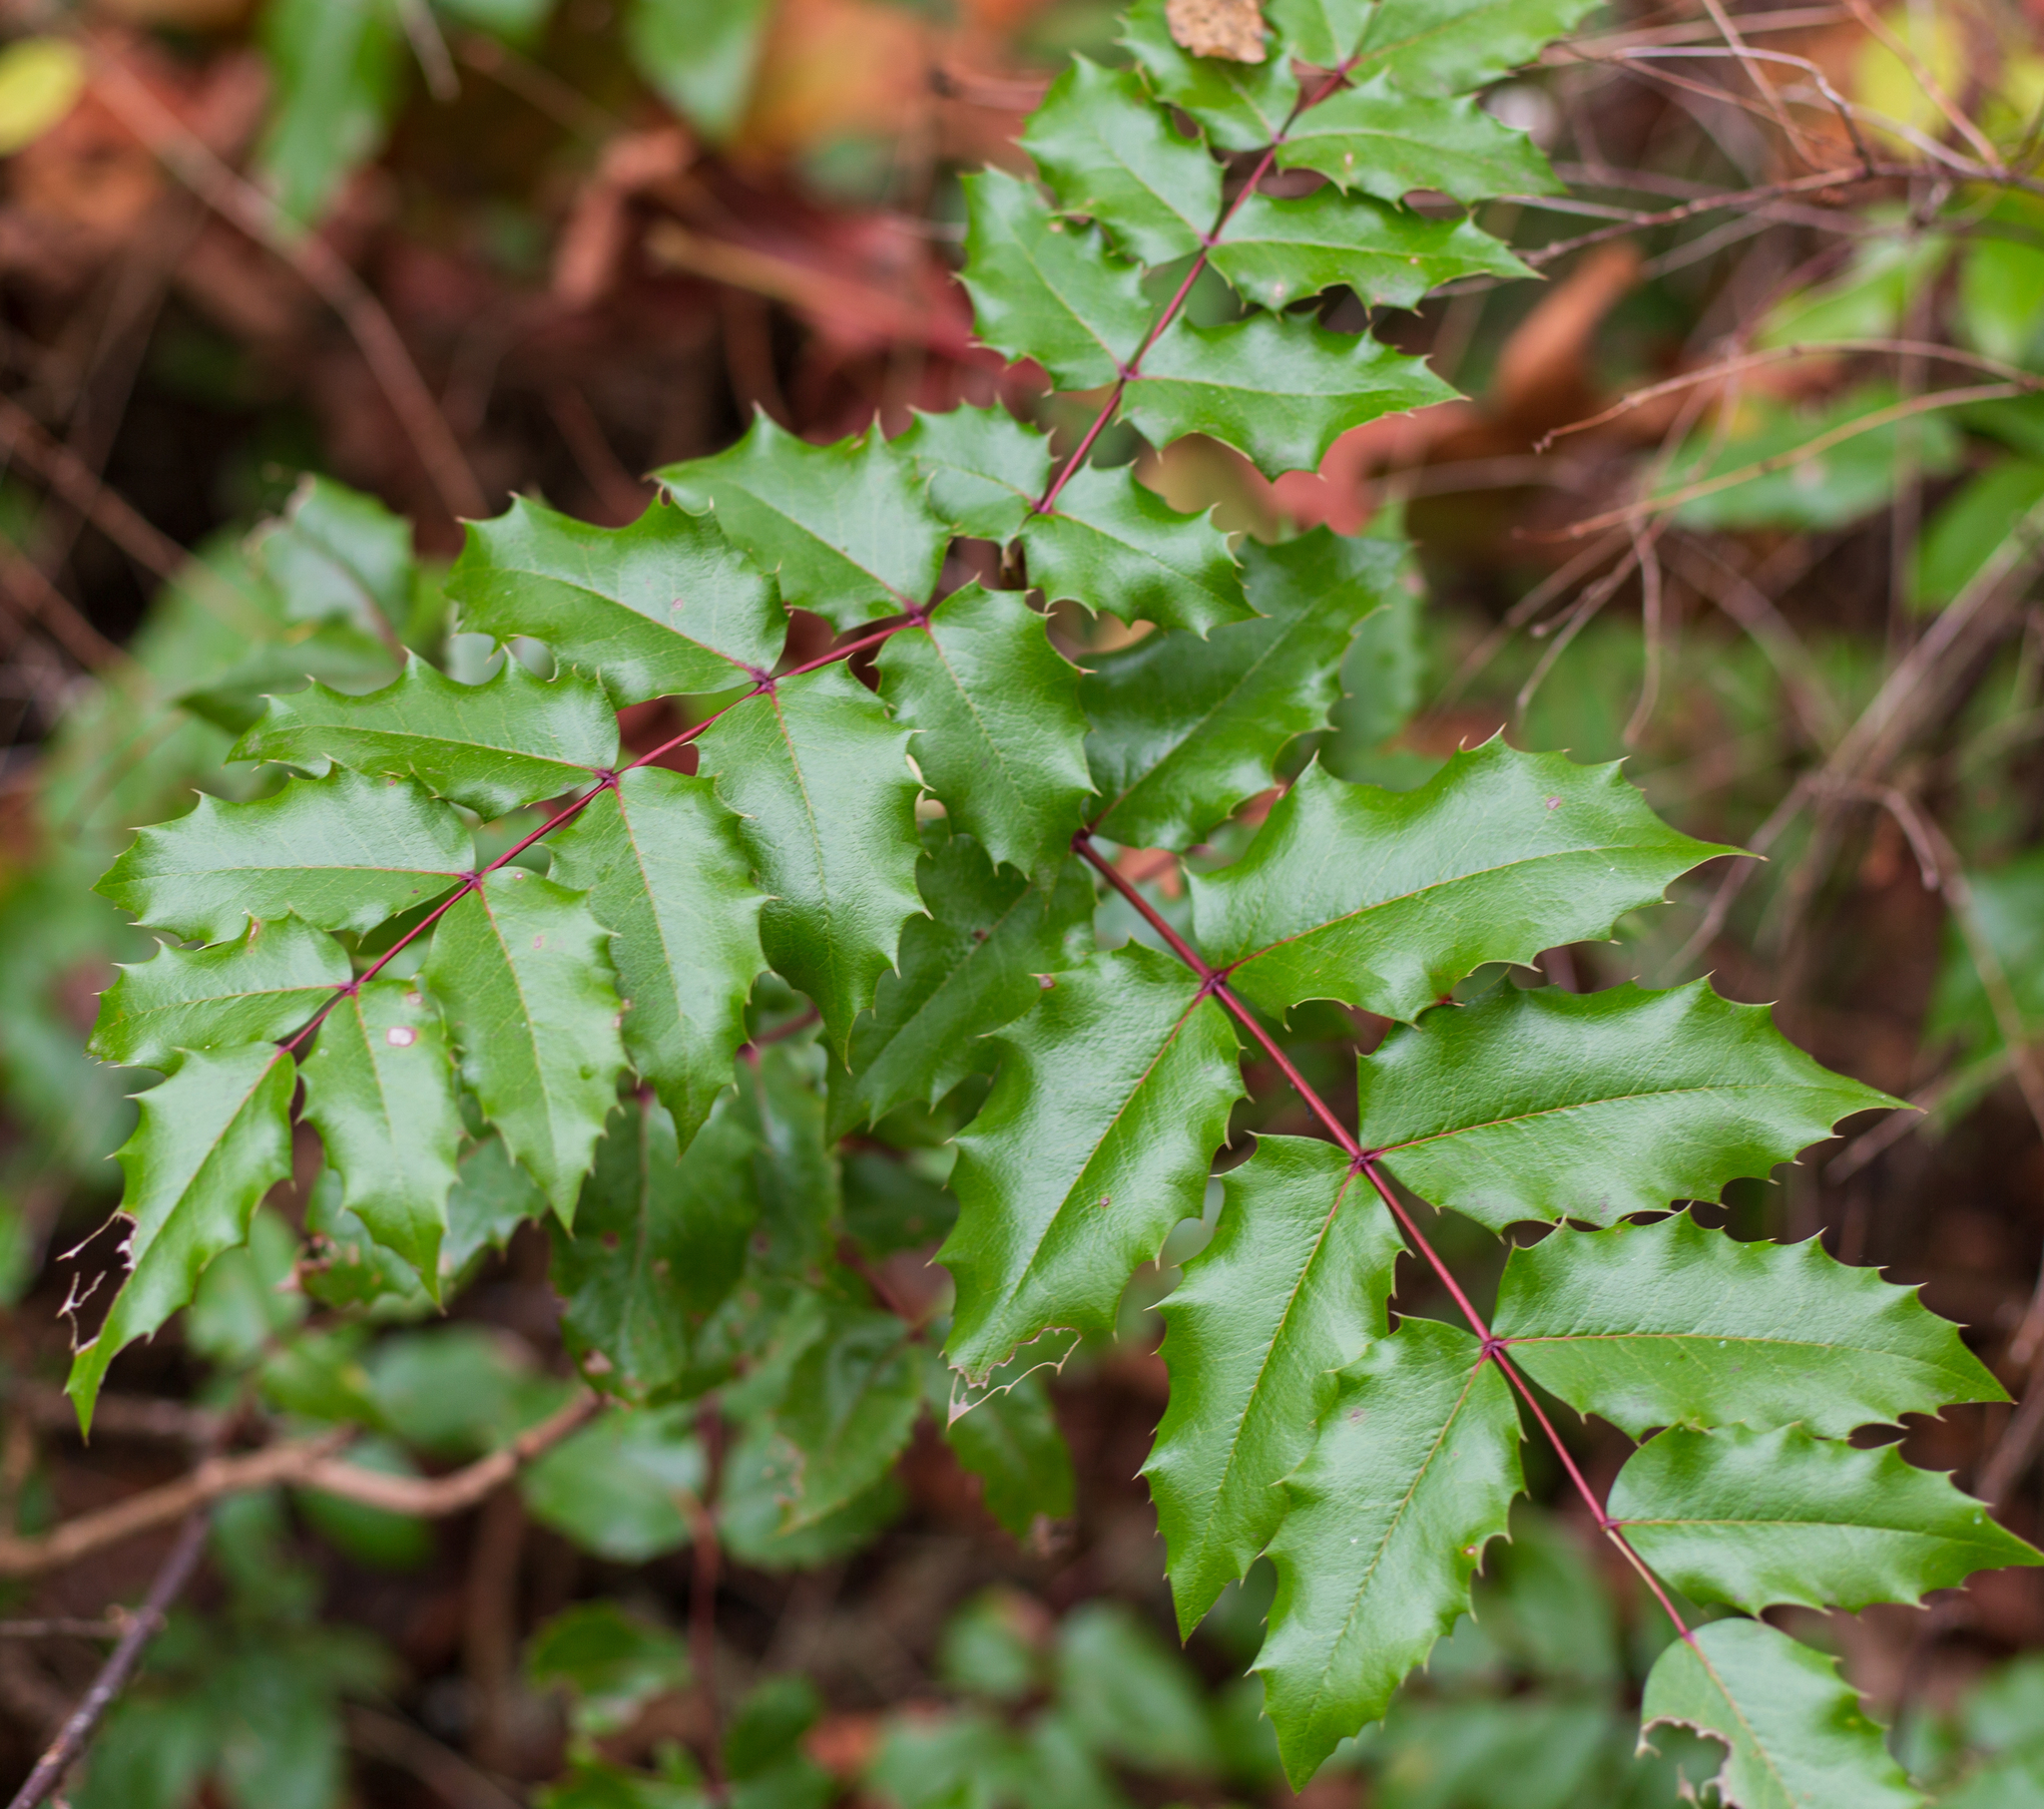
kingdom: Plantae
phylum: Tracheophyta
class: Magnoliopsida
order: Ranunculales
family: Berberidaceae
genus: Mahonia
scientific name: Mahonia aquifolium
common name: Oregon-grape
